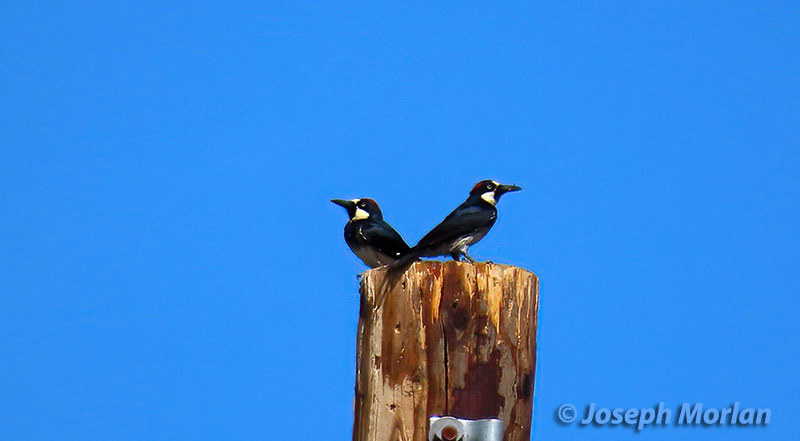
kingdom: Animalia
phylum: Chordata
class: Aves
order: Piciformes
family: Picidae
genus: Melanerpes
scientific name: Melanerpes formicivorus
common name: Acorn woodpecker
